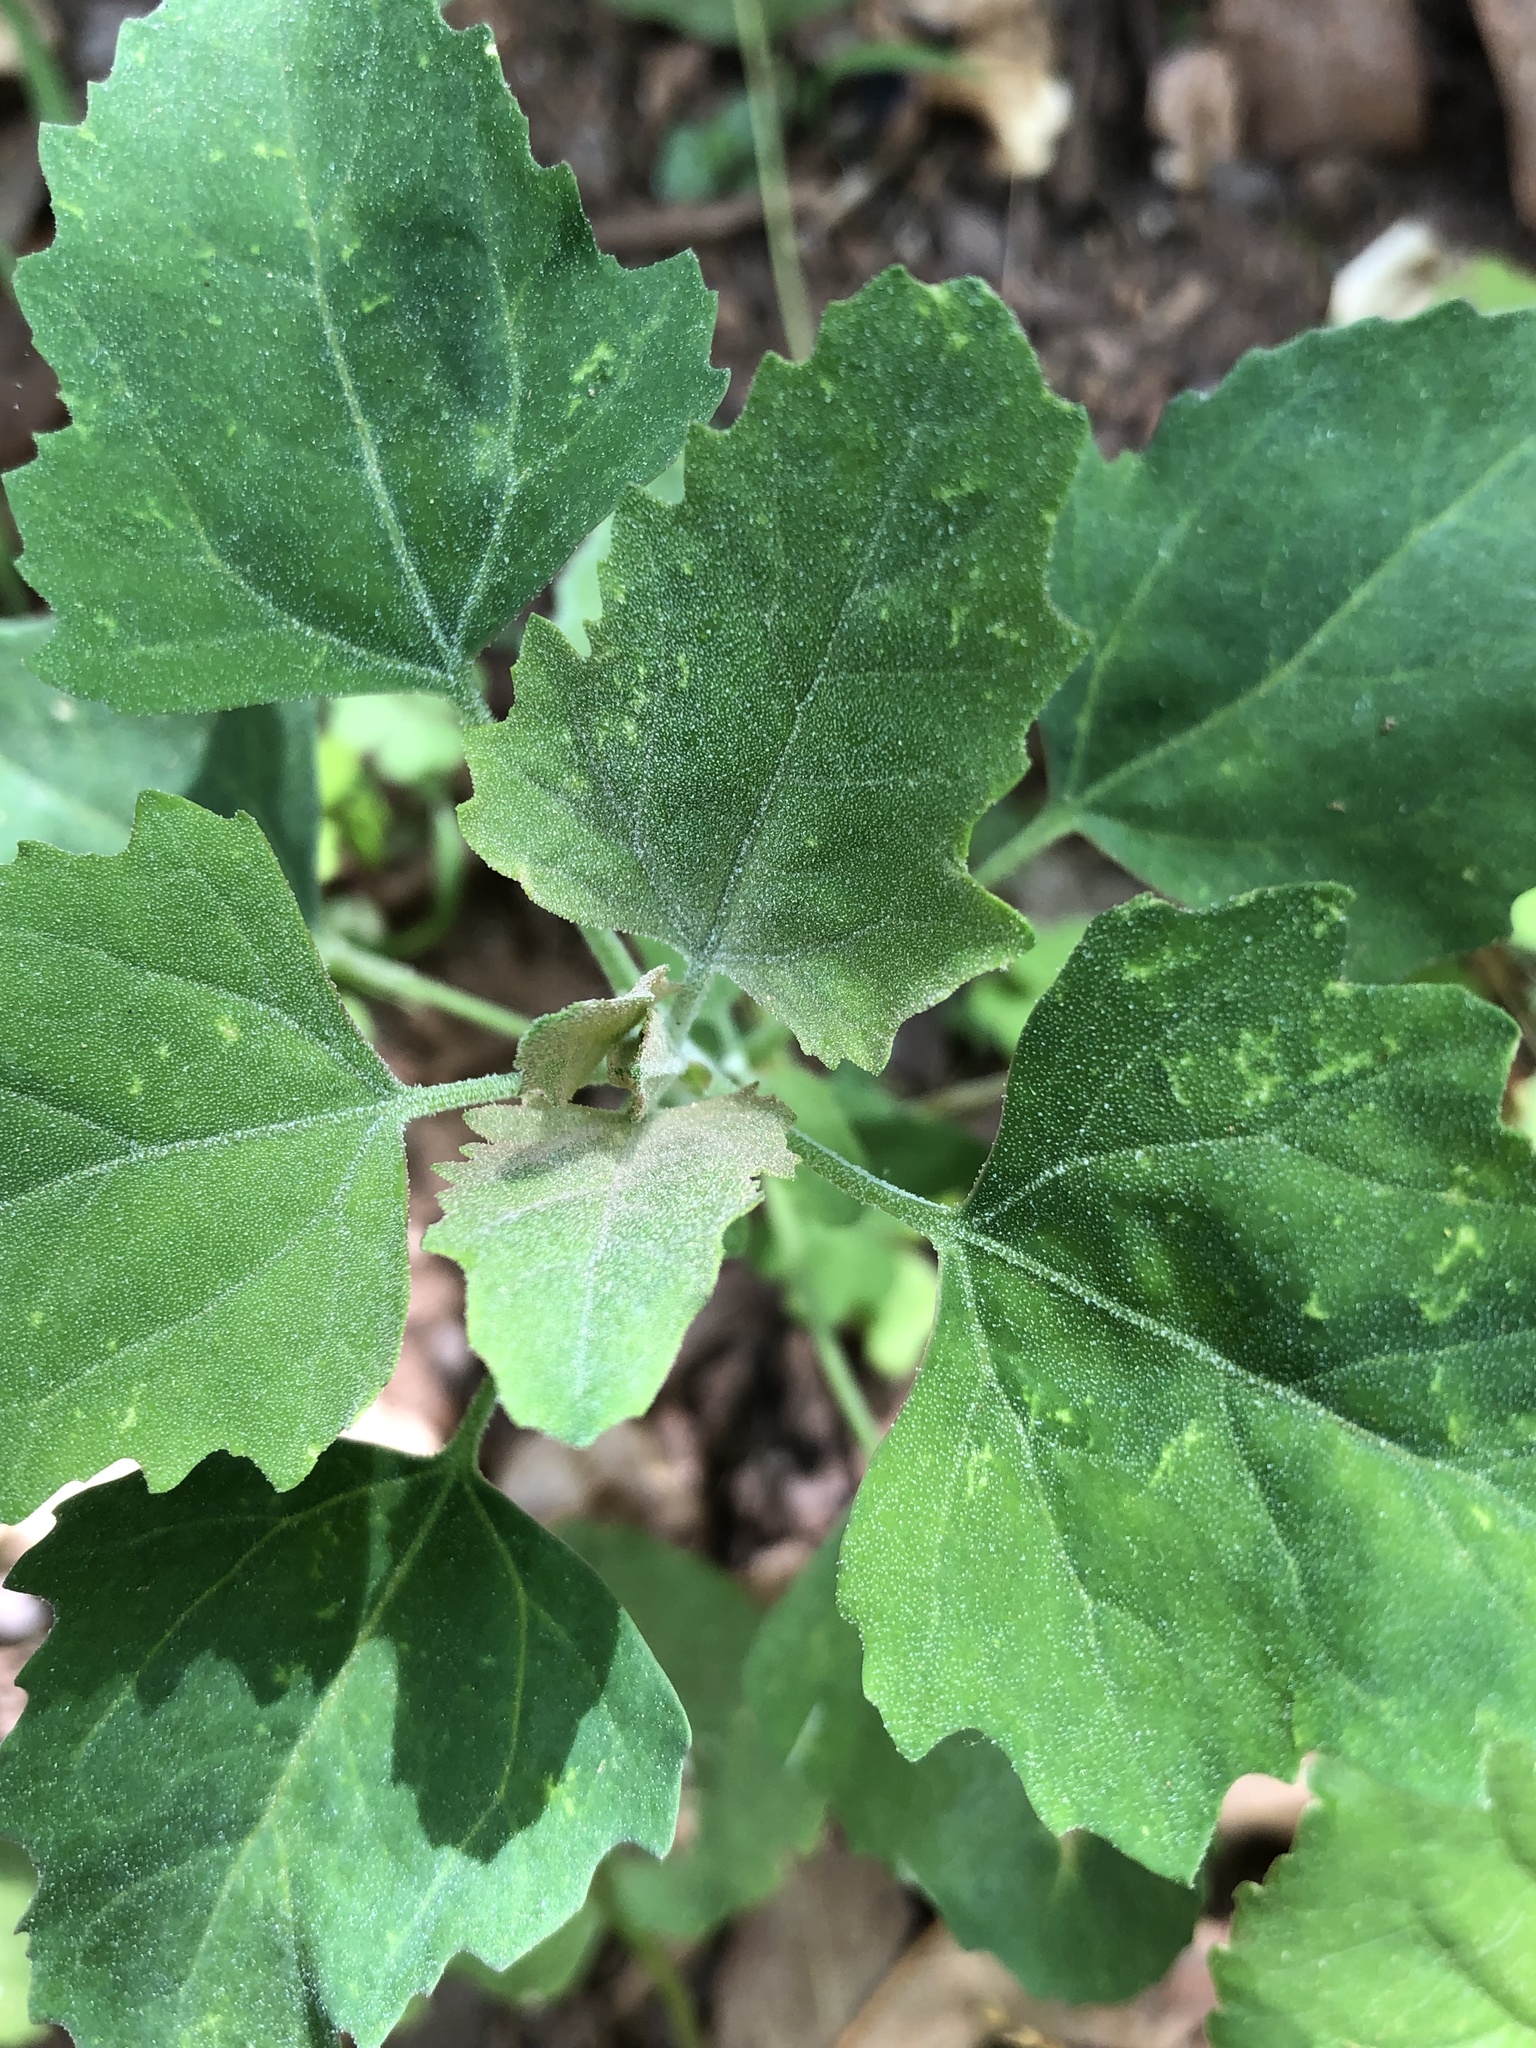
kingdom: Plantae
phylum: Tracheophyta
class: Magnoliopsida
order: Caryophyllales
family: Amaranthaceae
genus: Chenopodium
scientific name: Chenopodium album
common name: Fat-hen
